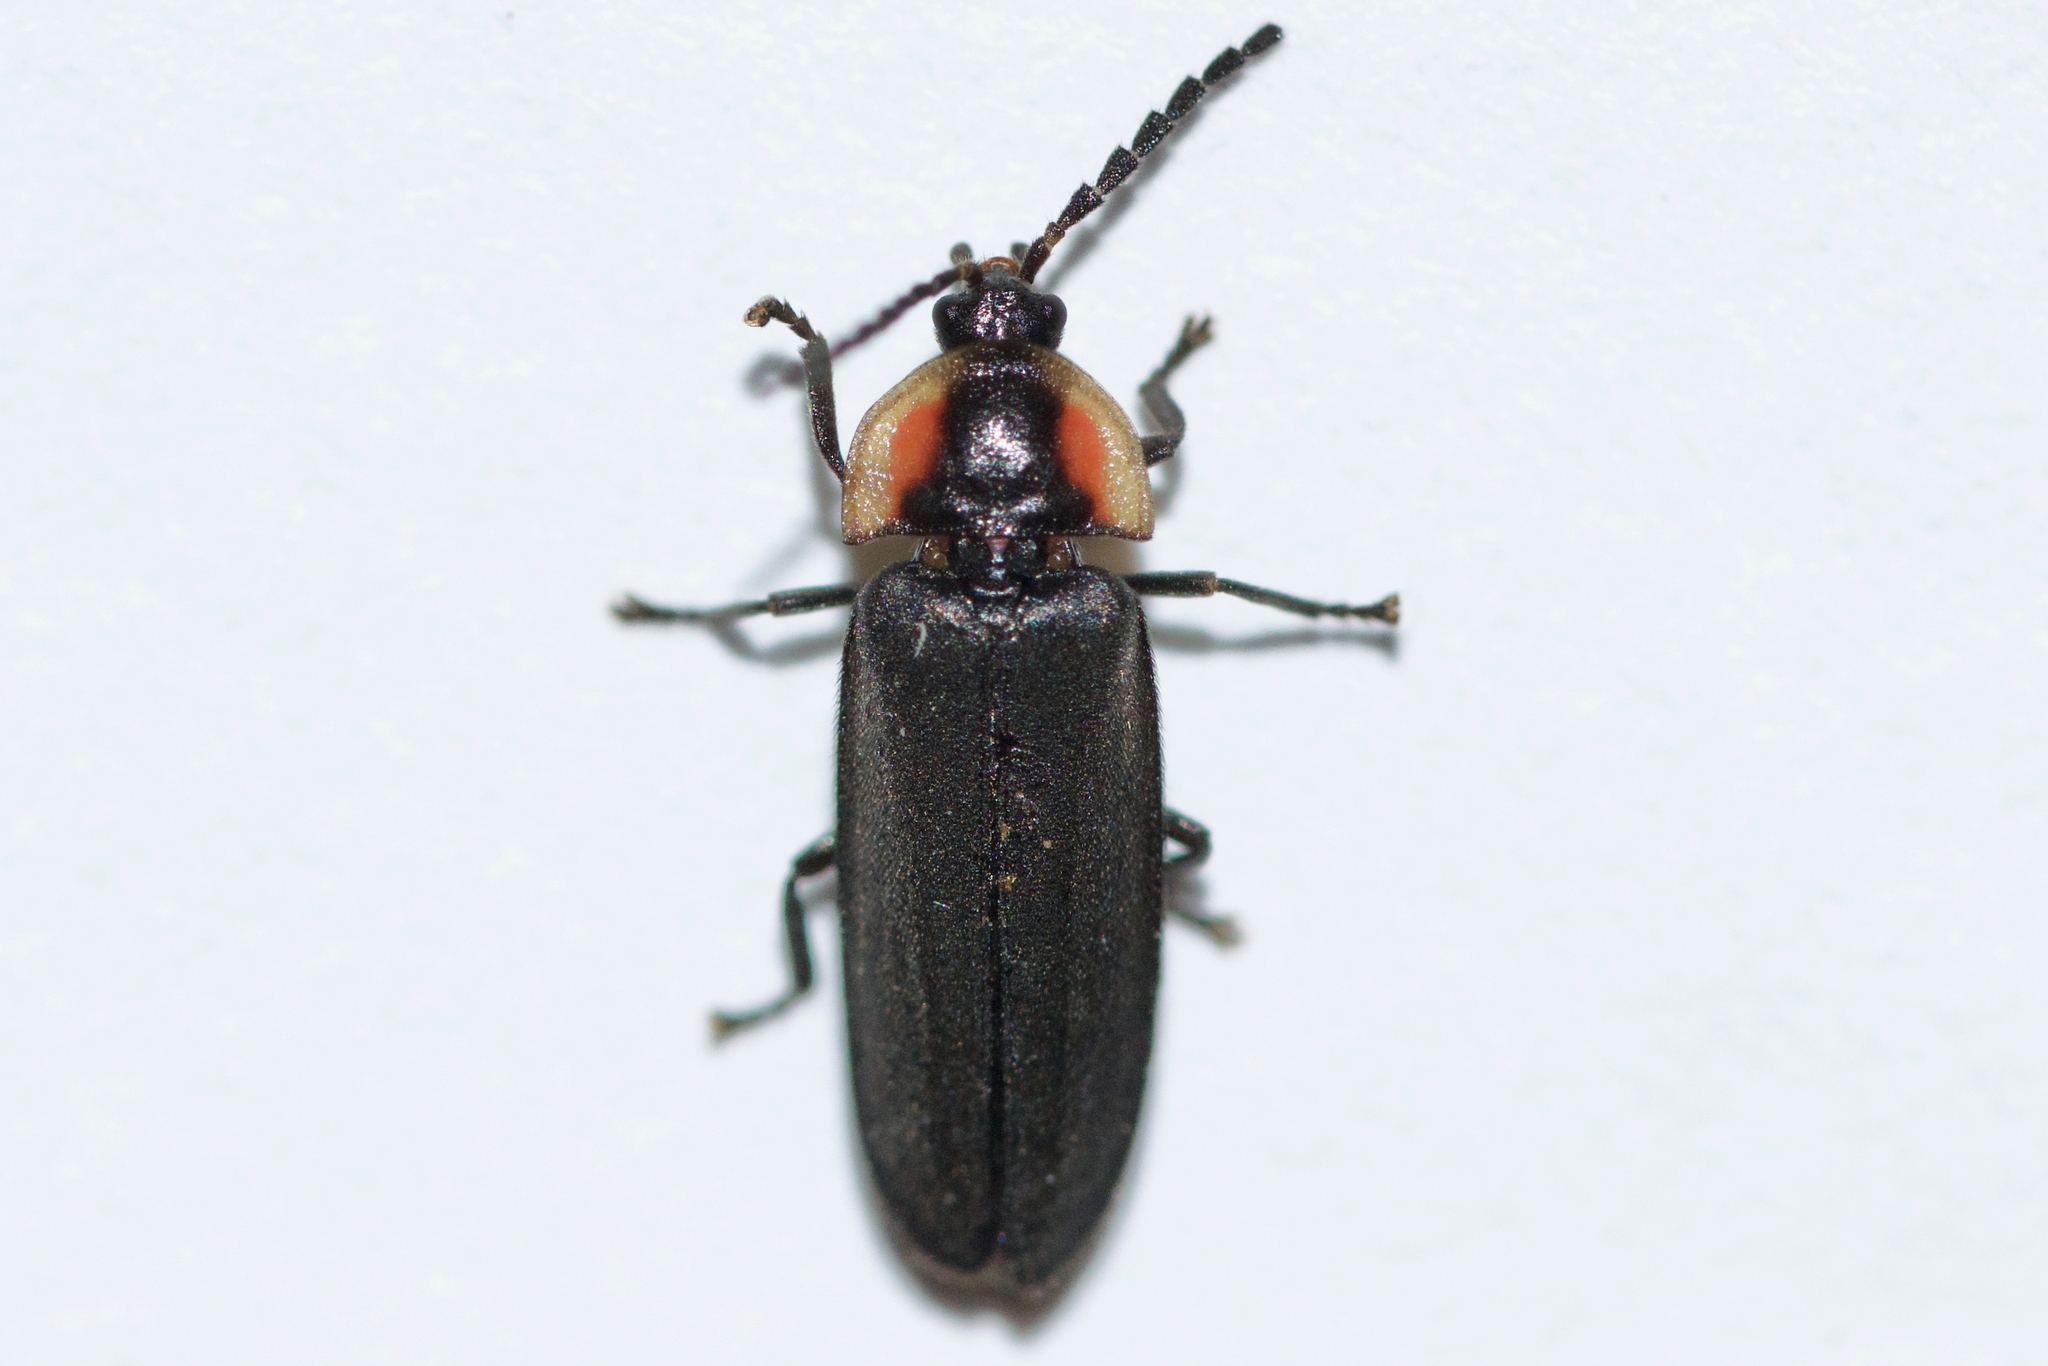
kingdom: Animalia
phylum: Arthropoda
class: Insecta
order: Coleoptera
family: Lampyridae
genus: Pyropyga
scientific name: Pyropyga decipiens
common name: Sneaky elf
